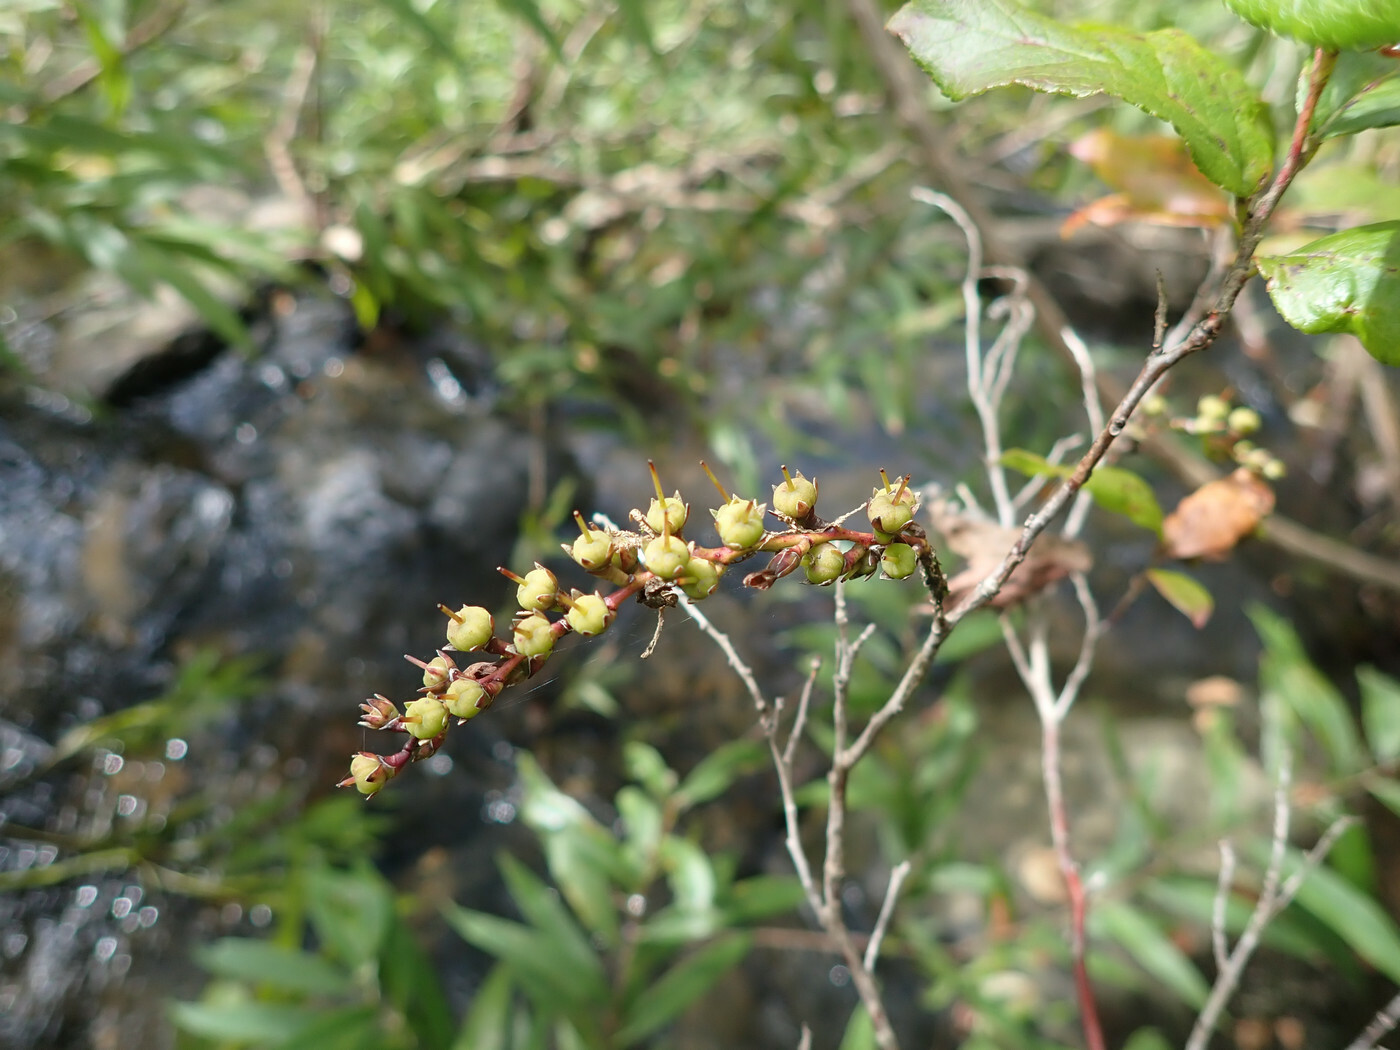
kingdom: Plantae
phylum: Tracheophyta
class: Magnoliopsida
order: Ericales
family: Ericaceae
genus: Eubotrys
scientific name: Eubotrys racemosa
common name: Fetterbush
